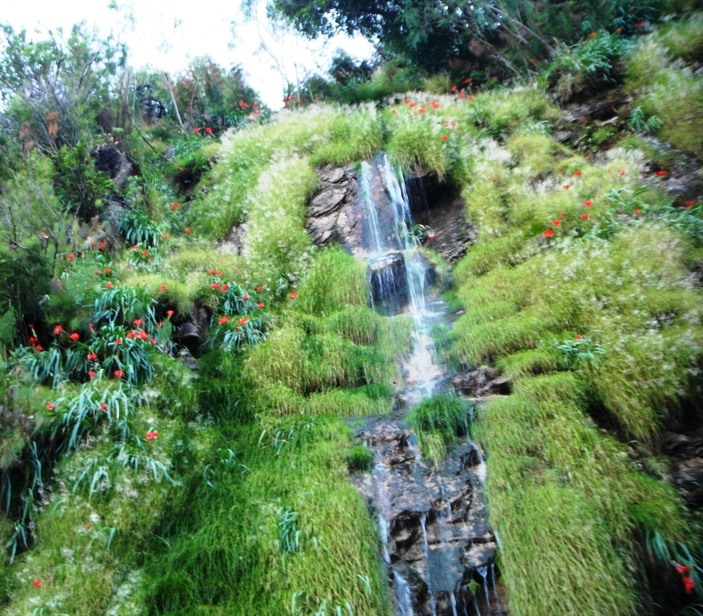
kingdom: Plantae
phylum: Tracheophyta
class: Liliopsida
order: Asparagales
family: Iridaceae
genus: Gladiolus
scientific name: Gladiolus cardinalis
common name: New year-lily
